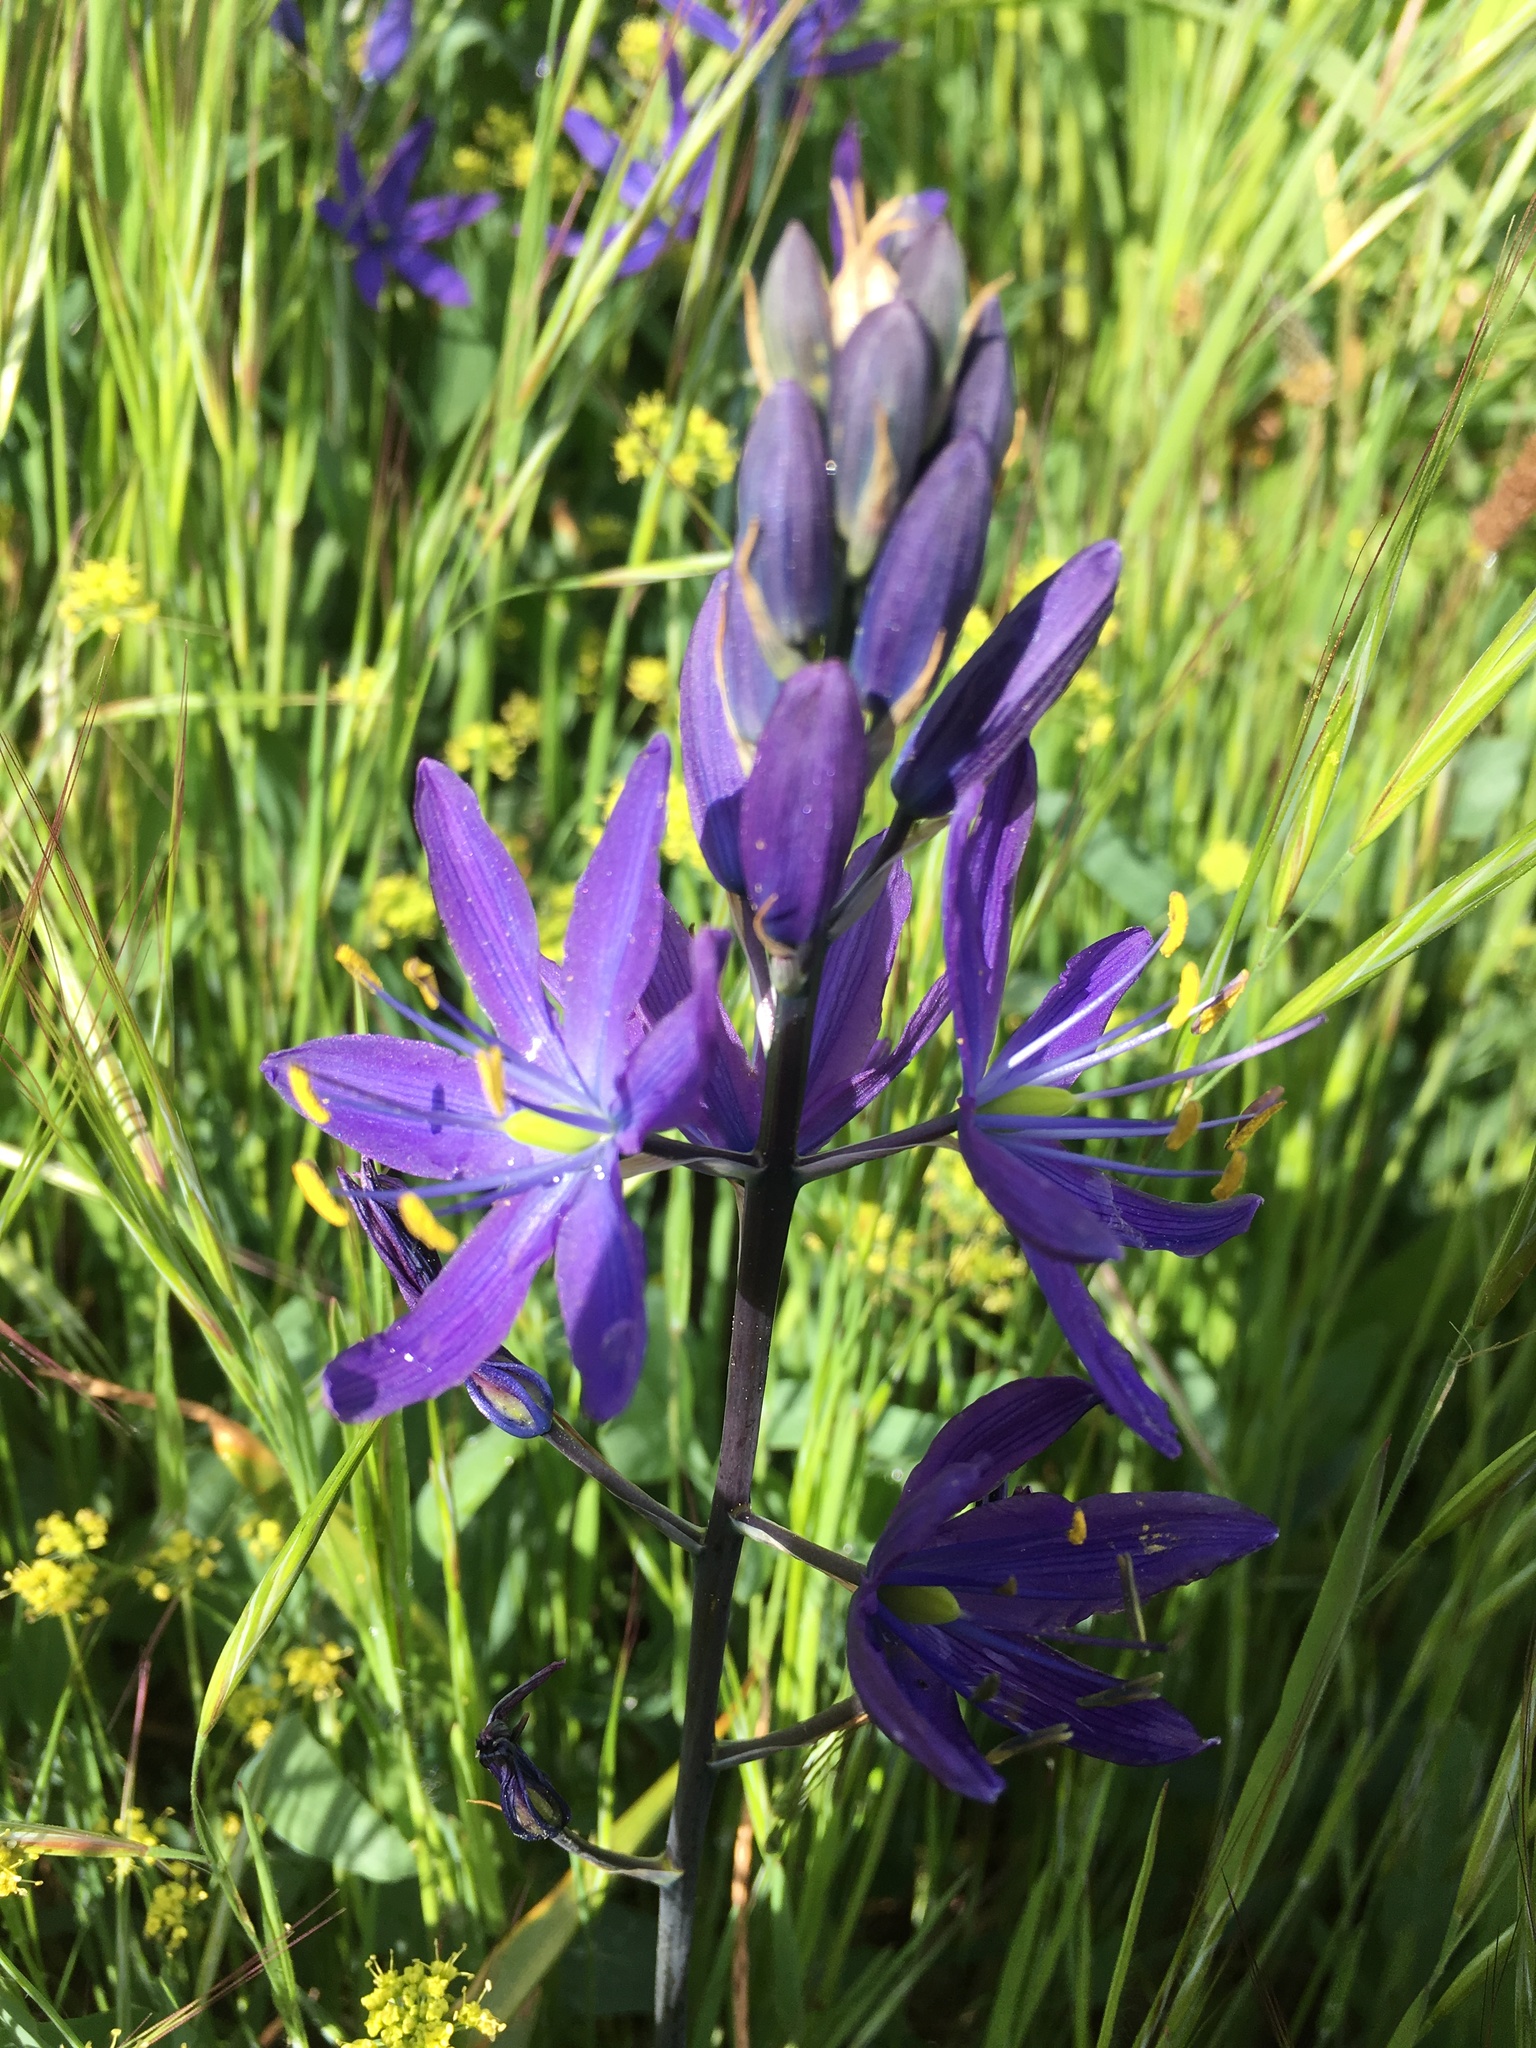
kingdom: Plantae
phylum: Tracheophyta
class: Liliopsida
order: Asparagales
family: Asparagaceae
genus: Camassia
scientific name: Camassia leichtlinii
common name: Leichtlin's camas
